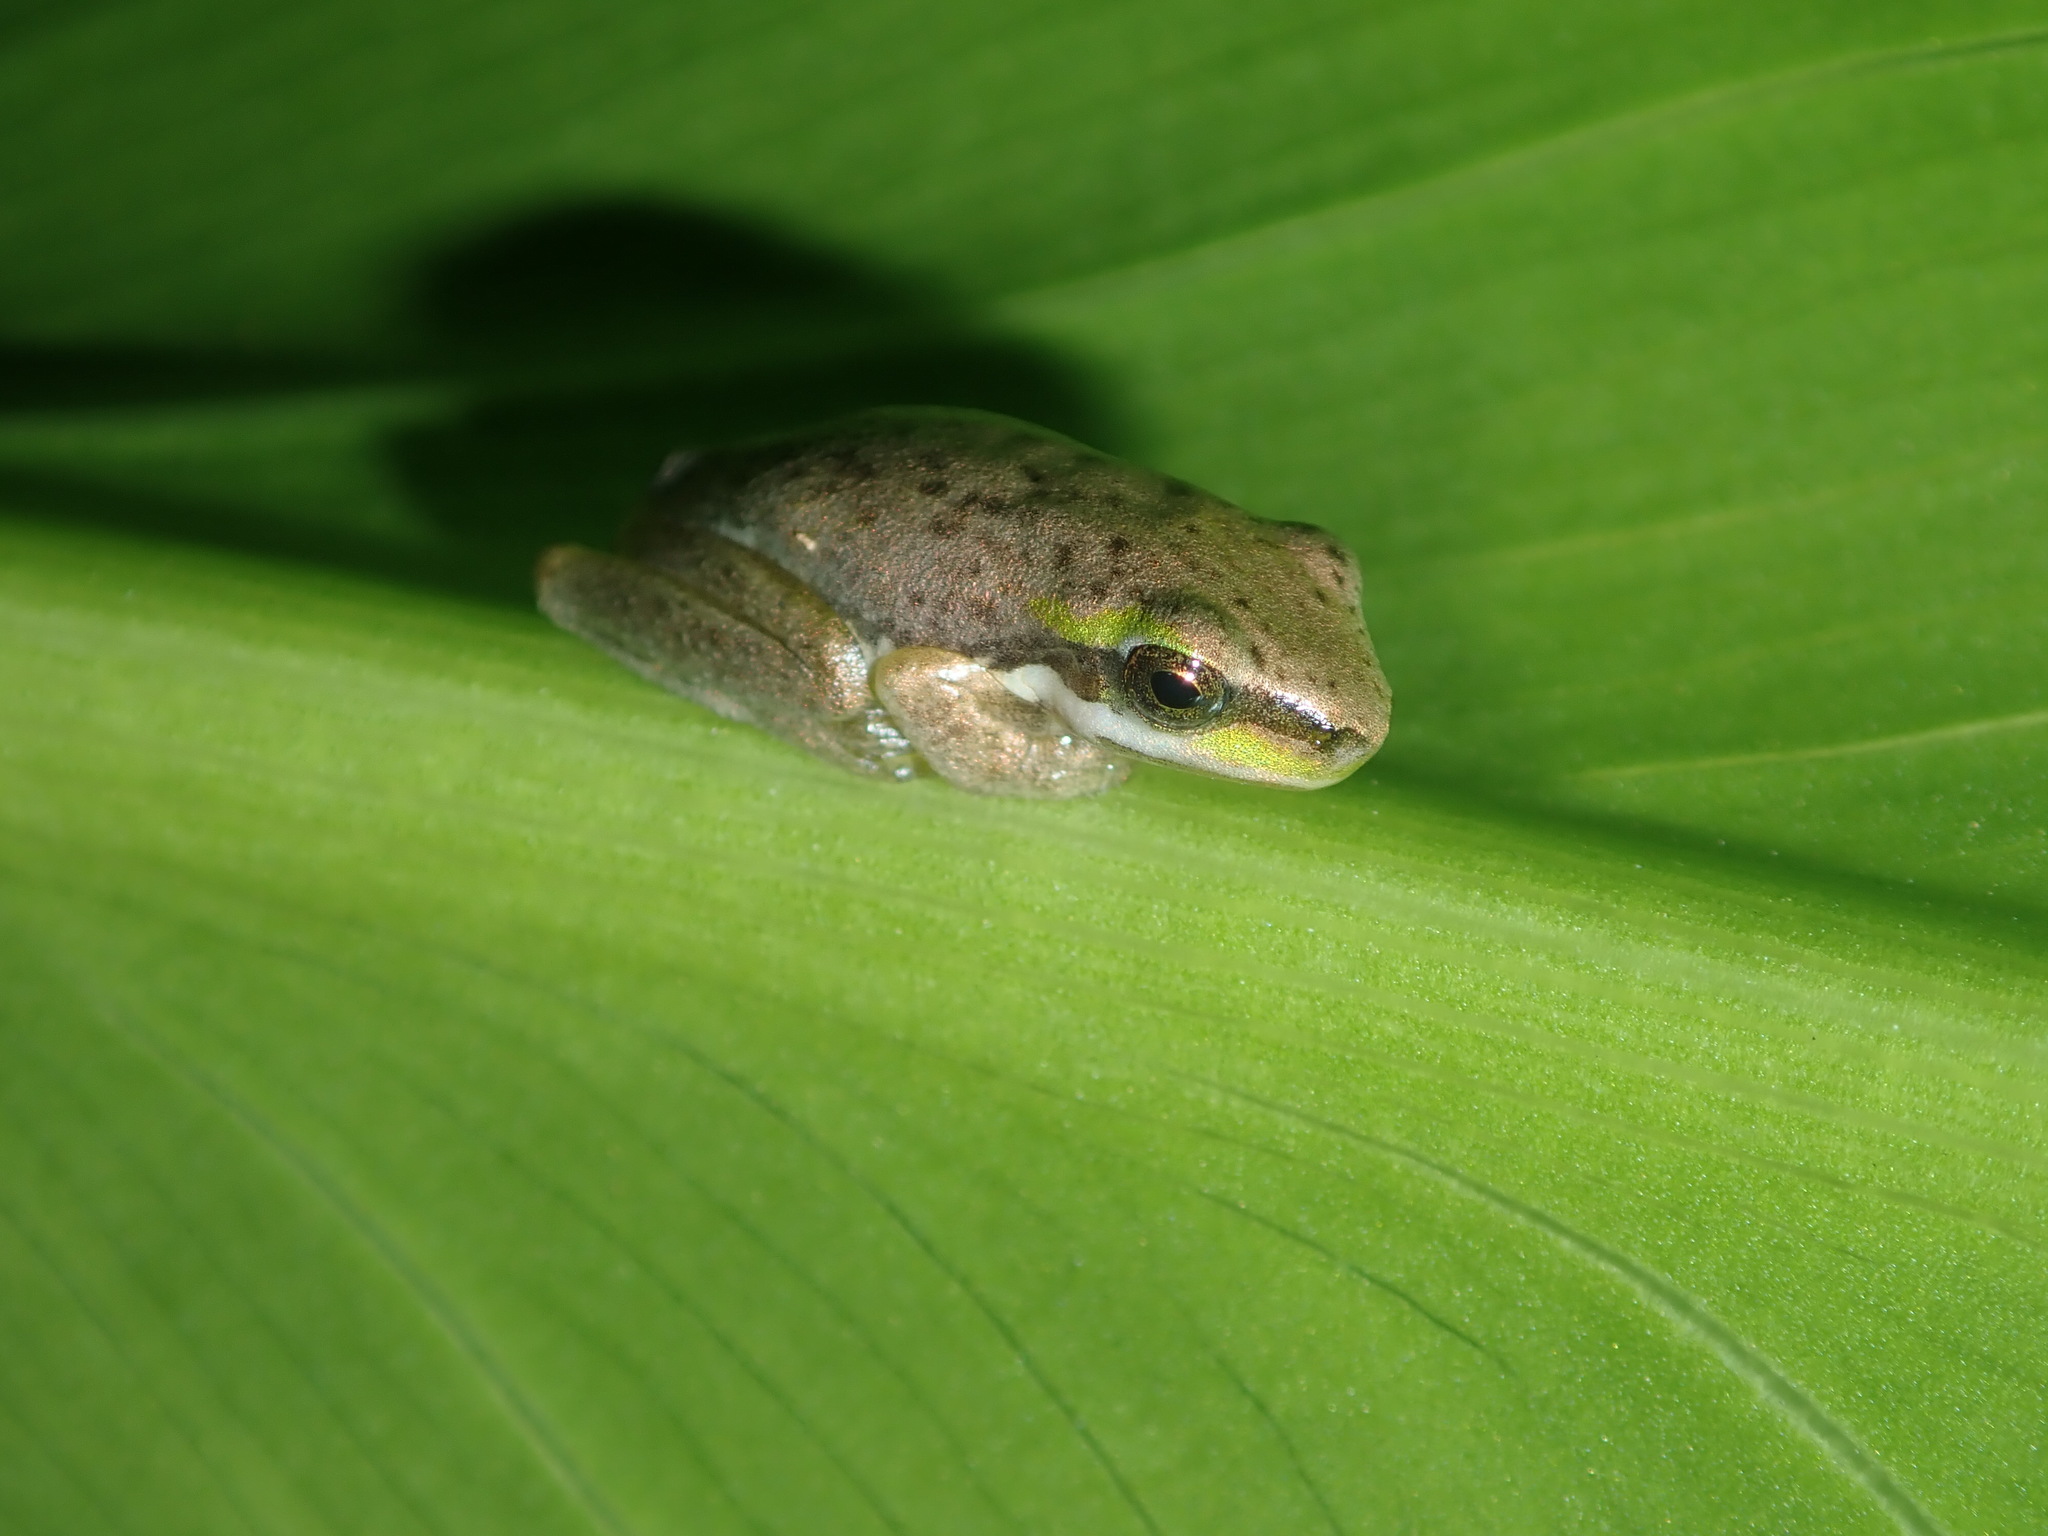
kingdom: Animalia
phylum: Chordata
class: Amphibia
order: Anura
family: Pelodryadidae
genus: Litoria
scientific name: Litoria fallax
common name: Eastern dwarf treefrog
